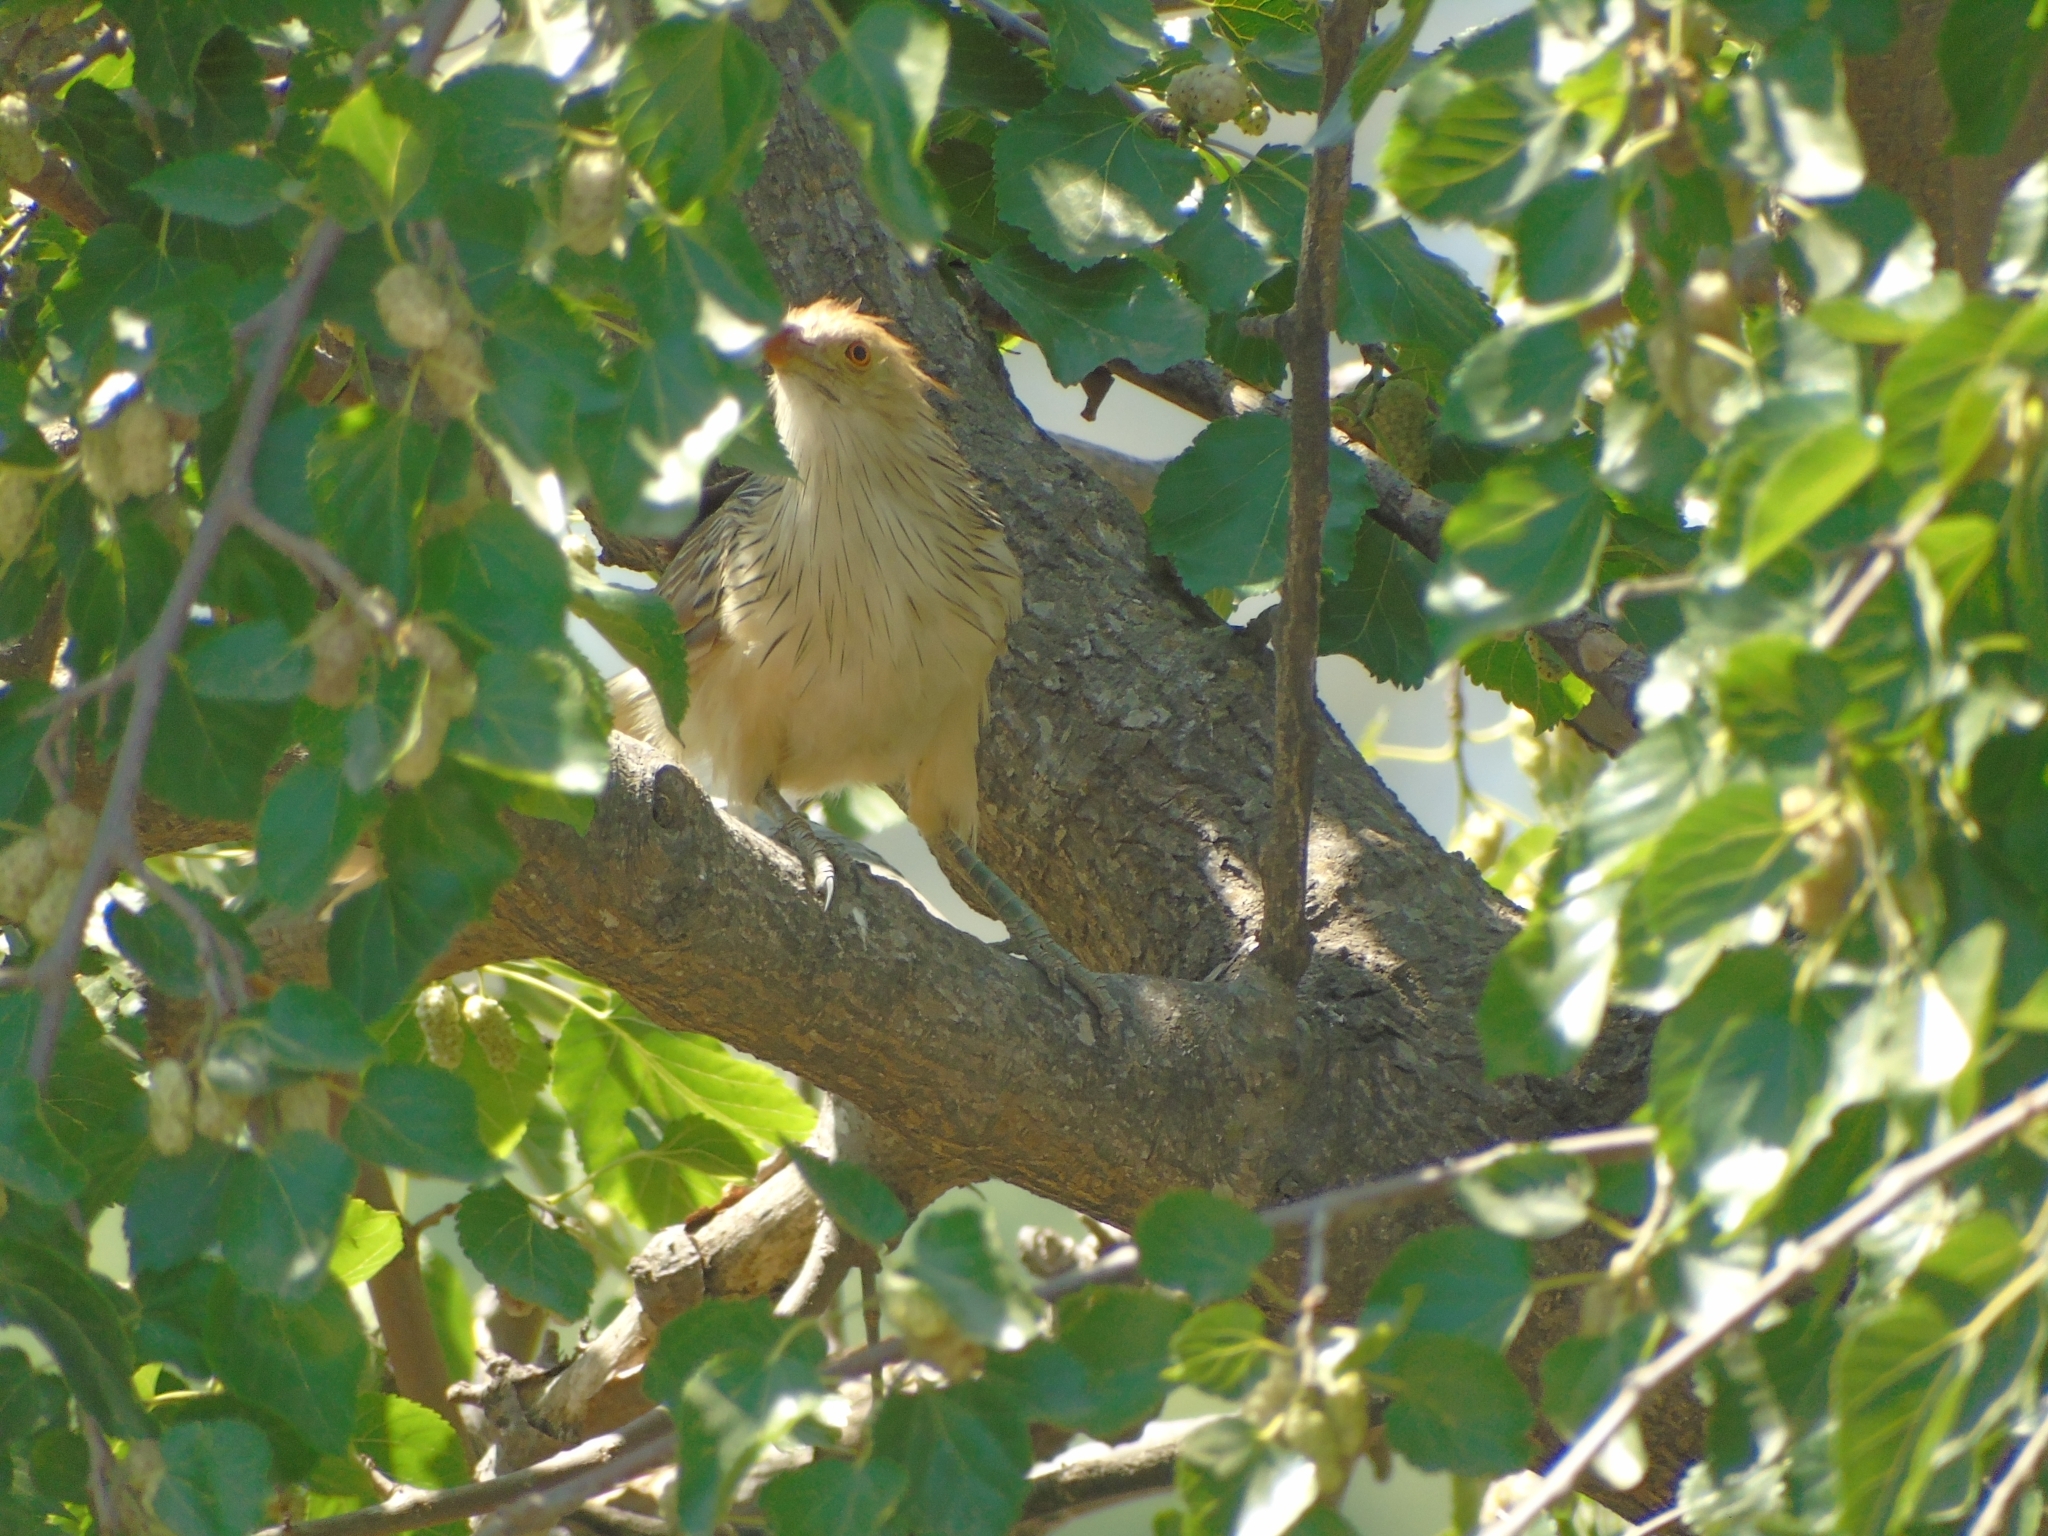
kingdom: Animalia
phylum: Chordata
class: Aves
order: Cuculiformes
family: Cuculidae
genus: Guira
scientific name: Guira guira
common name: Guira cuckoo
